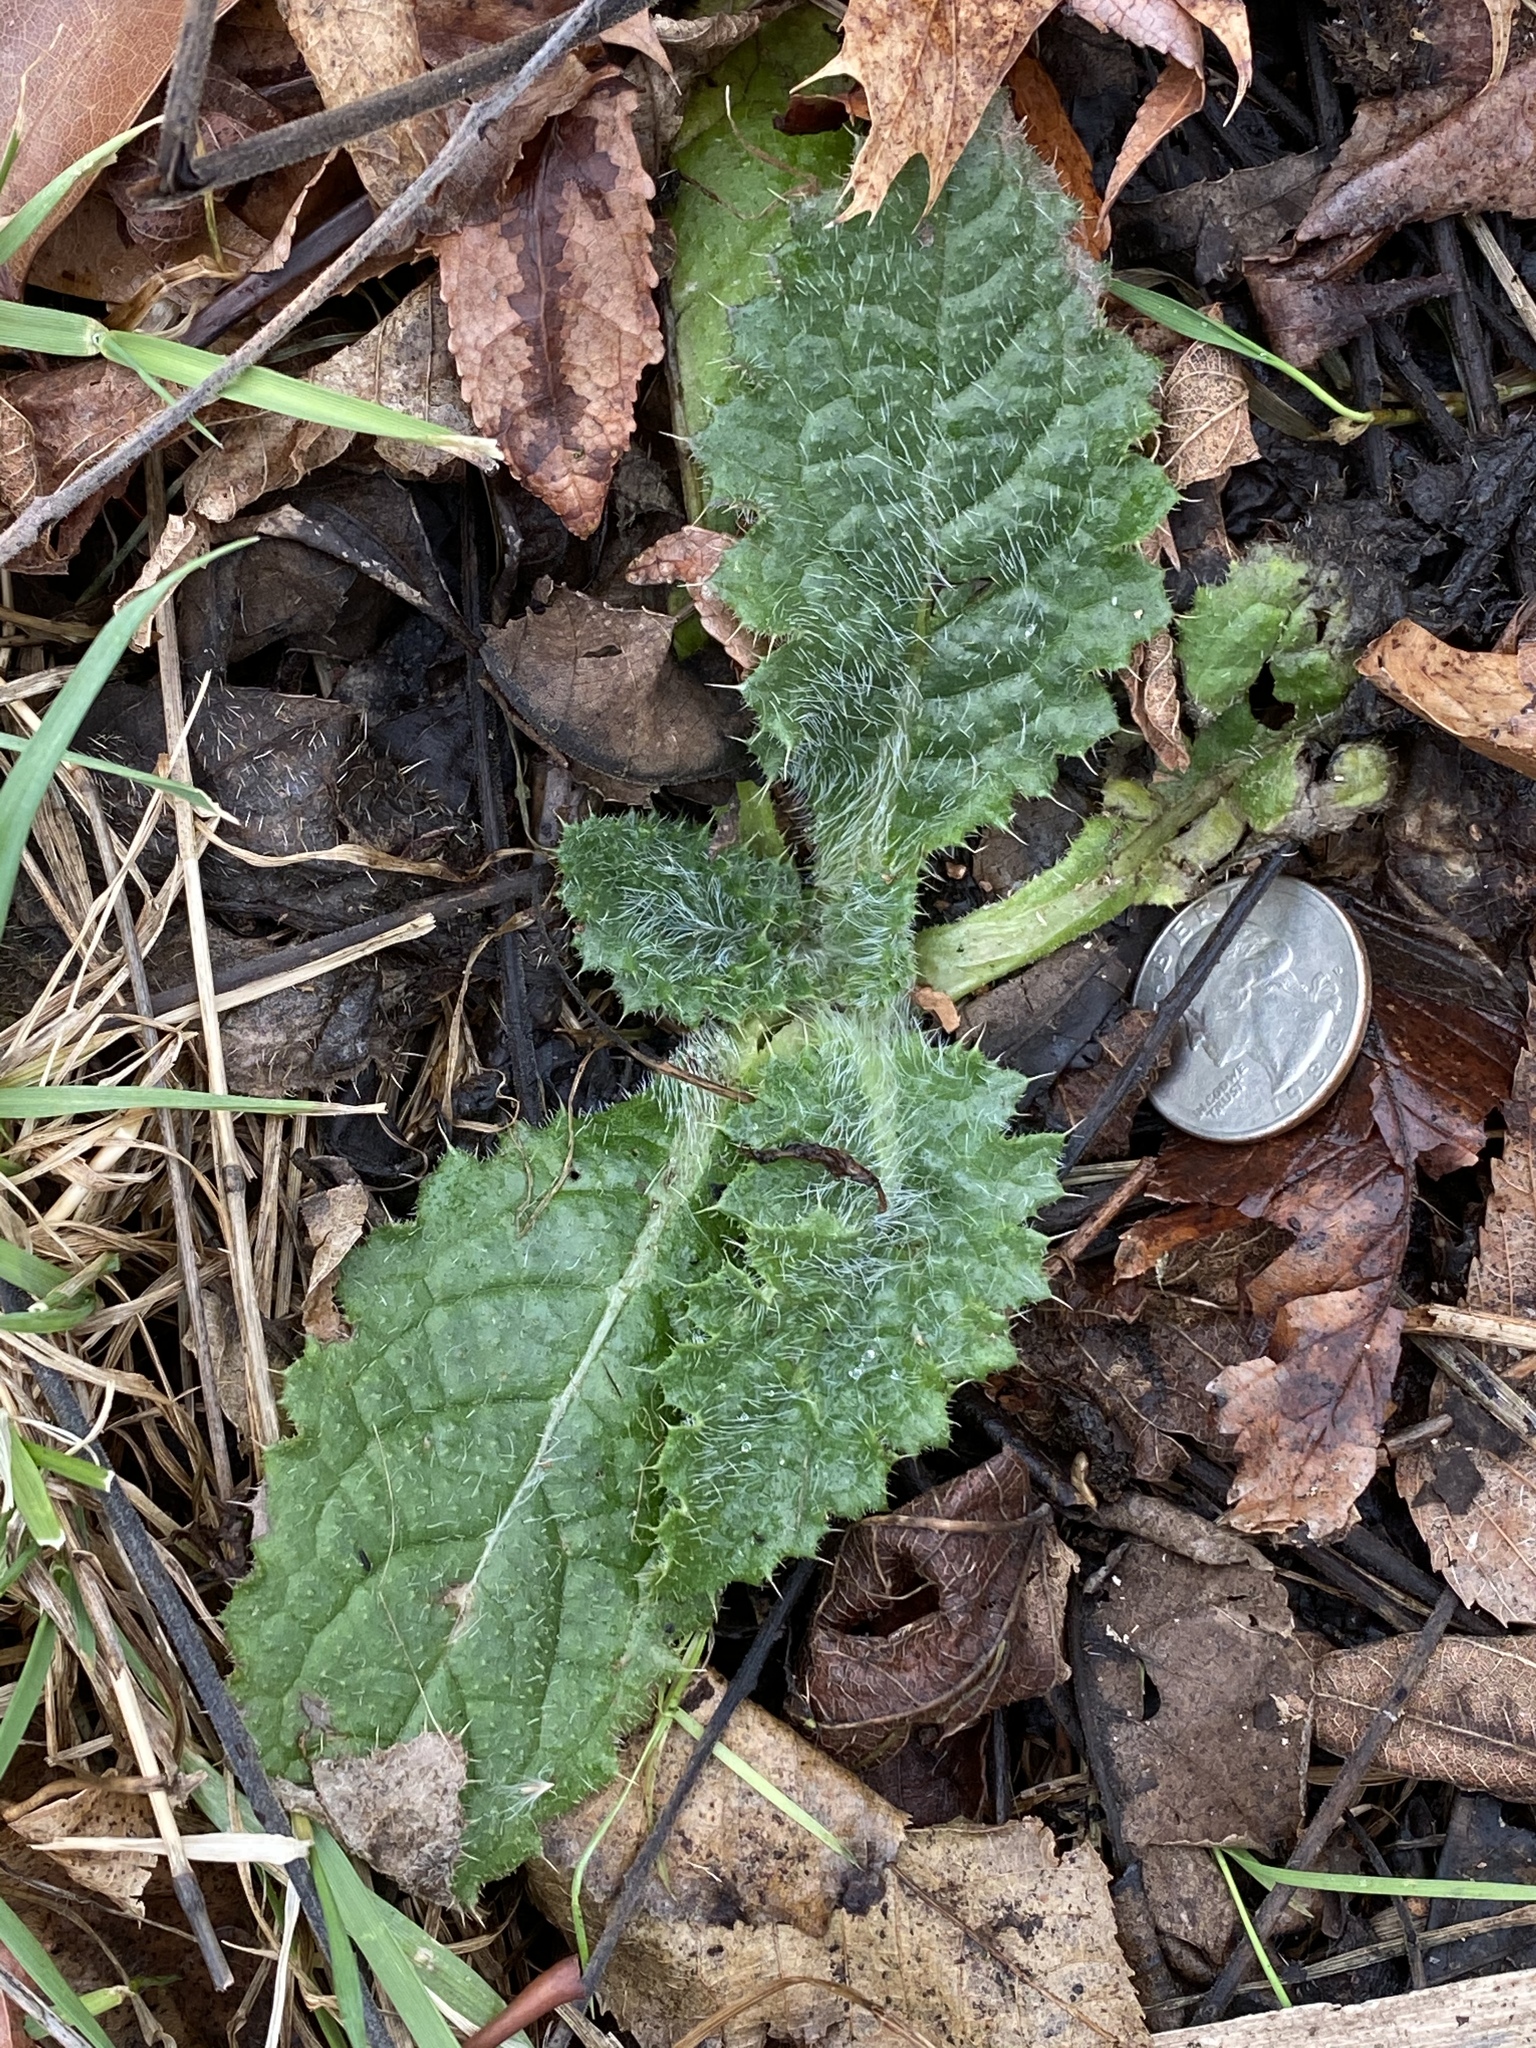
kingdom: Plantae
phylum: Tracheophyta
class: Magnoliopsida
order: Asterales
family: Asteraceae
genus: Cirsium
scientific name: Cirsium vulgare
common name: Bull thistle
